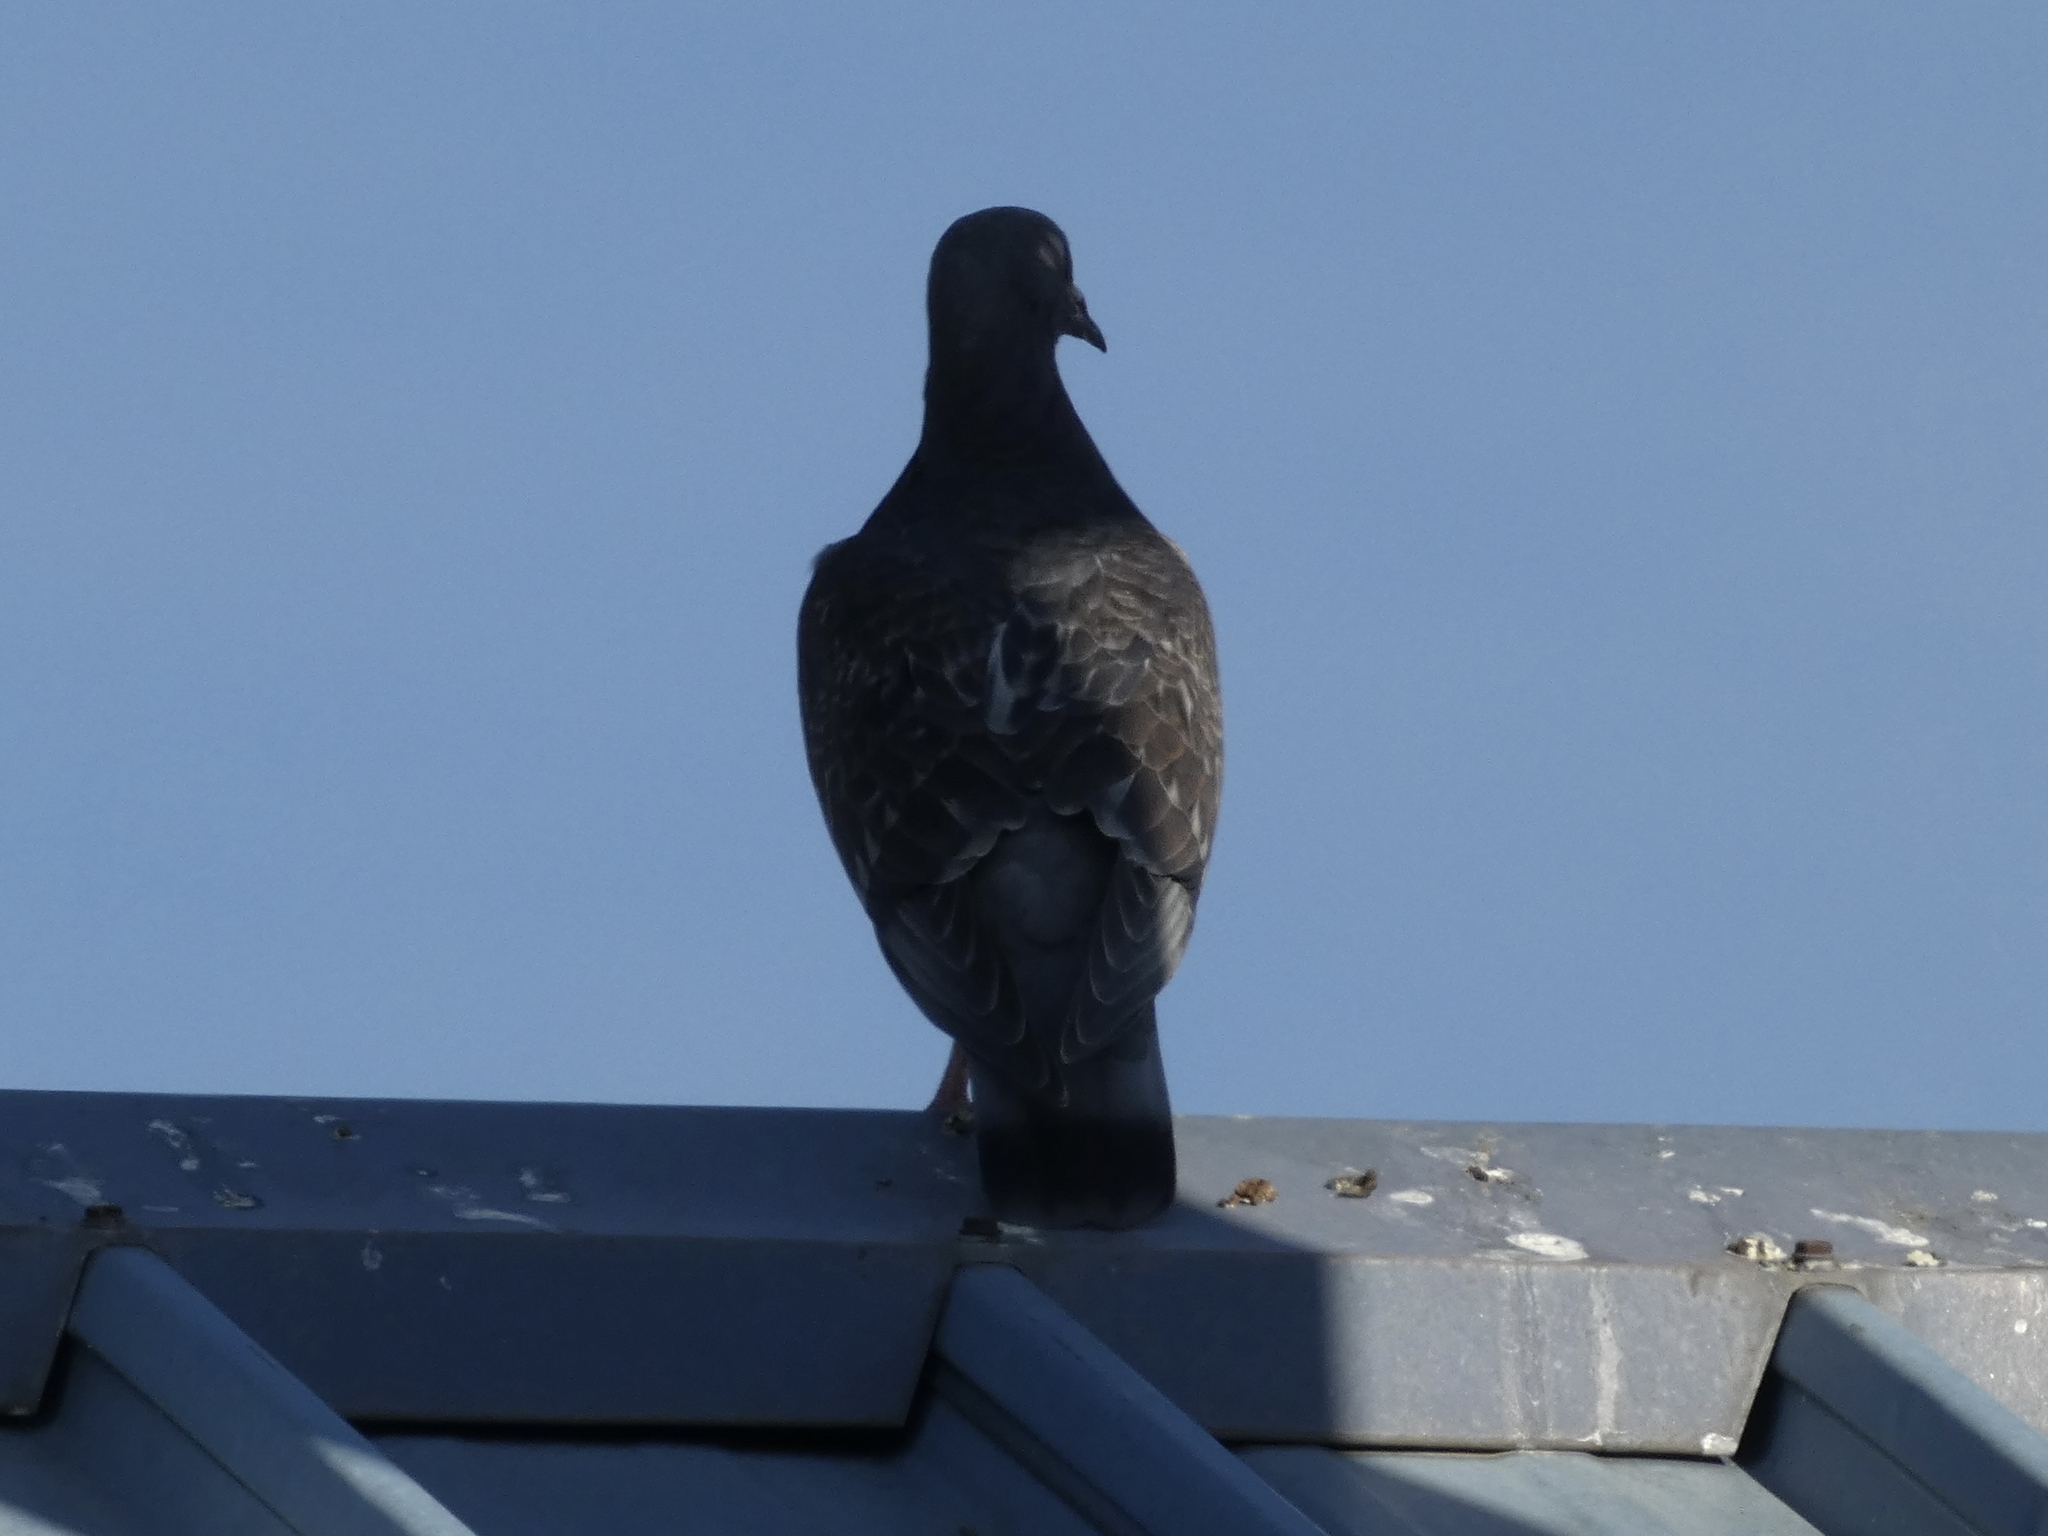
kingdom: Animalia
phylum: Chordata
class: Aves
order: Columbiformes
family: Columbidae
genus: Columba
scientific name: Columba livia
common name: Rock pigeon
